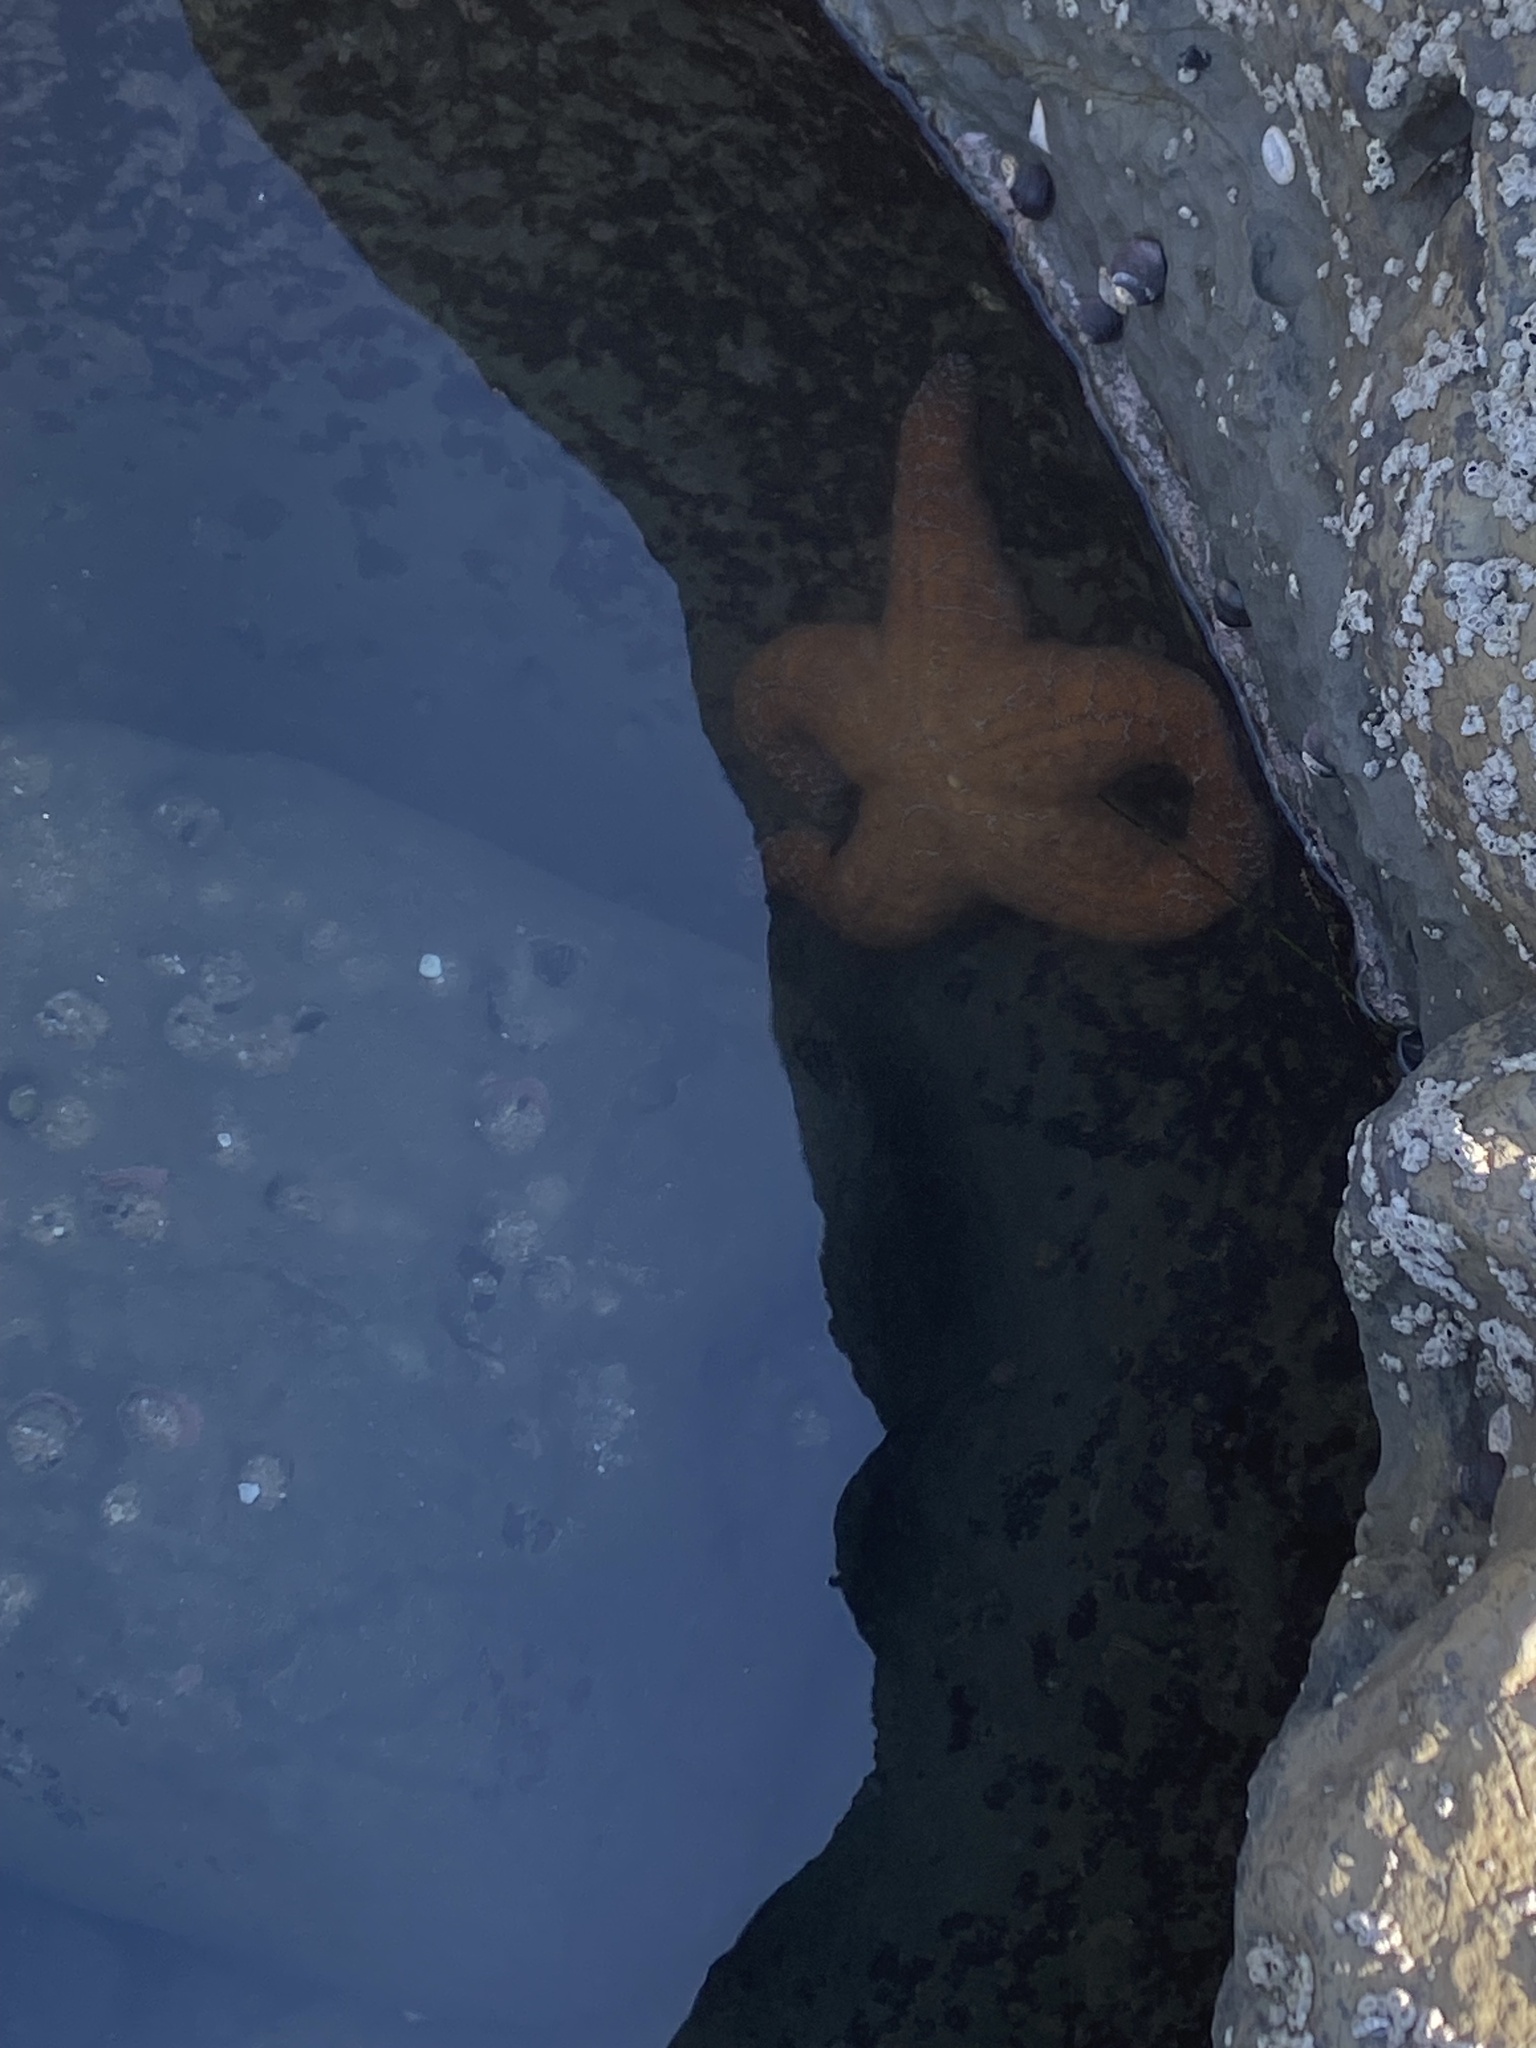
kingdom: Animalia
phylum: Echinodermata
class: Asteroidea
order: Forcipulatida
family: Asteriidae
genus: Pisaster
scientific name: Pisaster ochraceus
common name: Ochre stars
